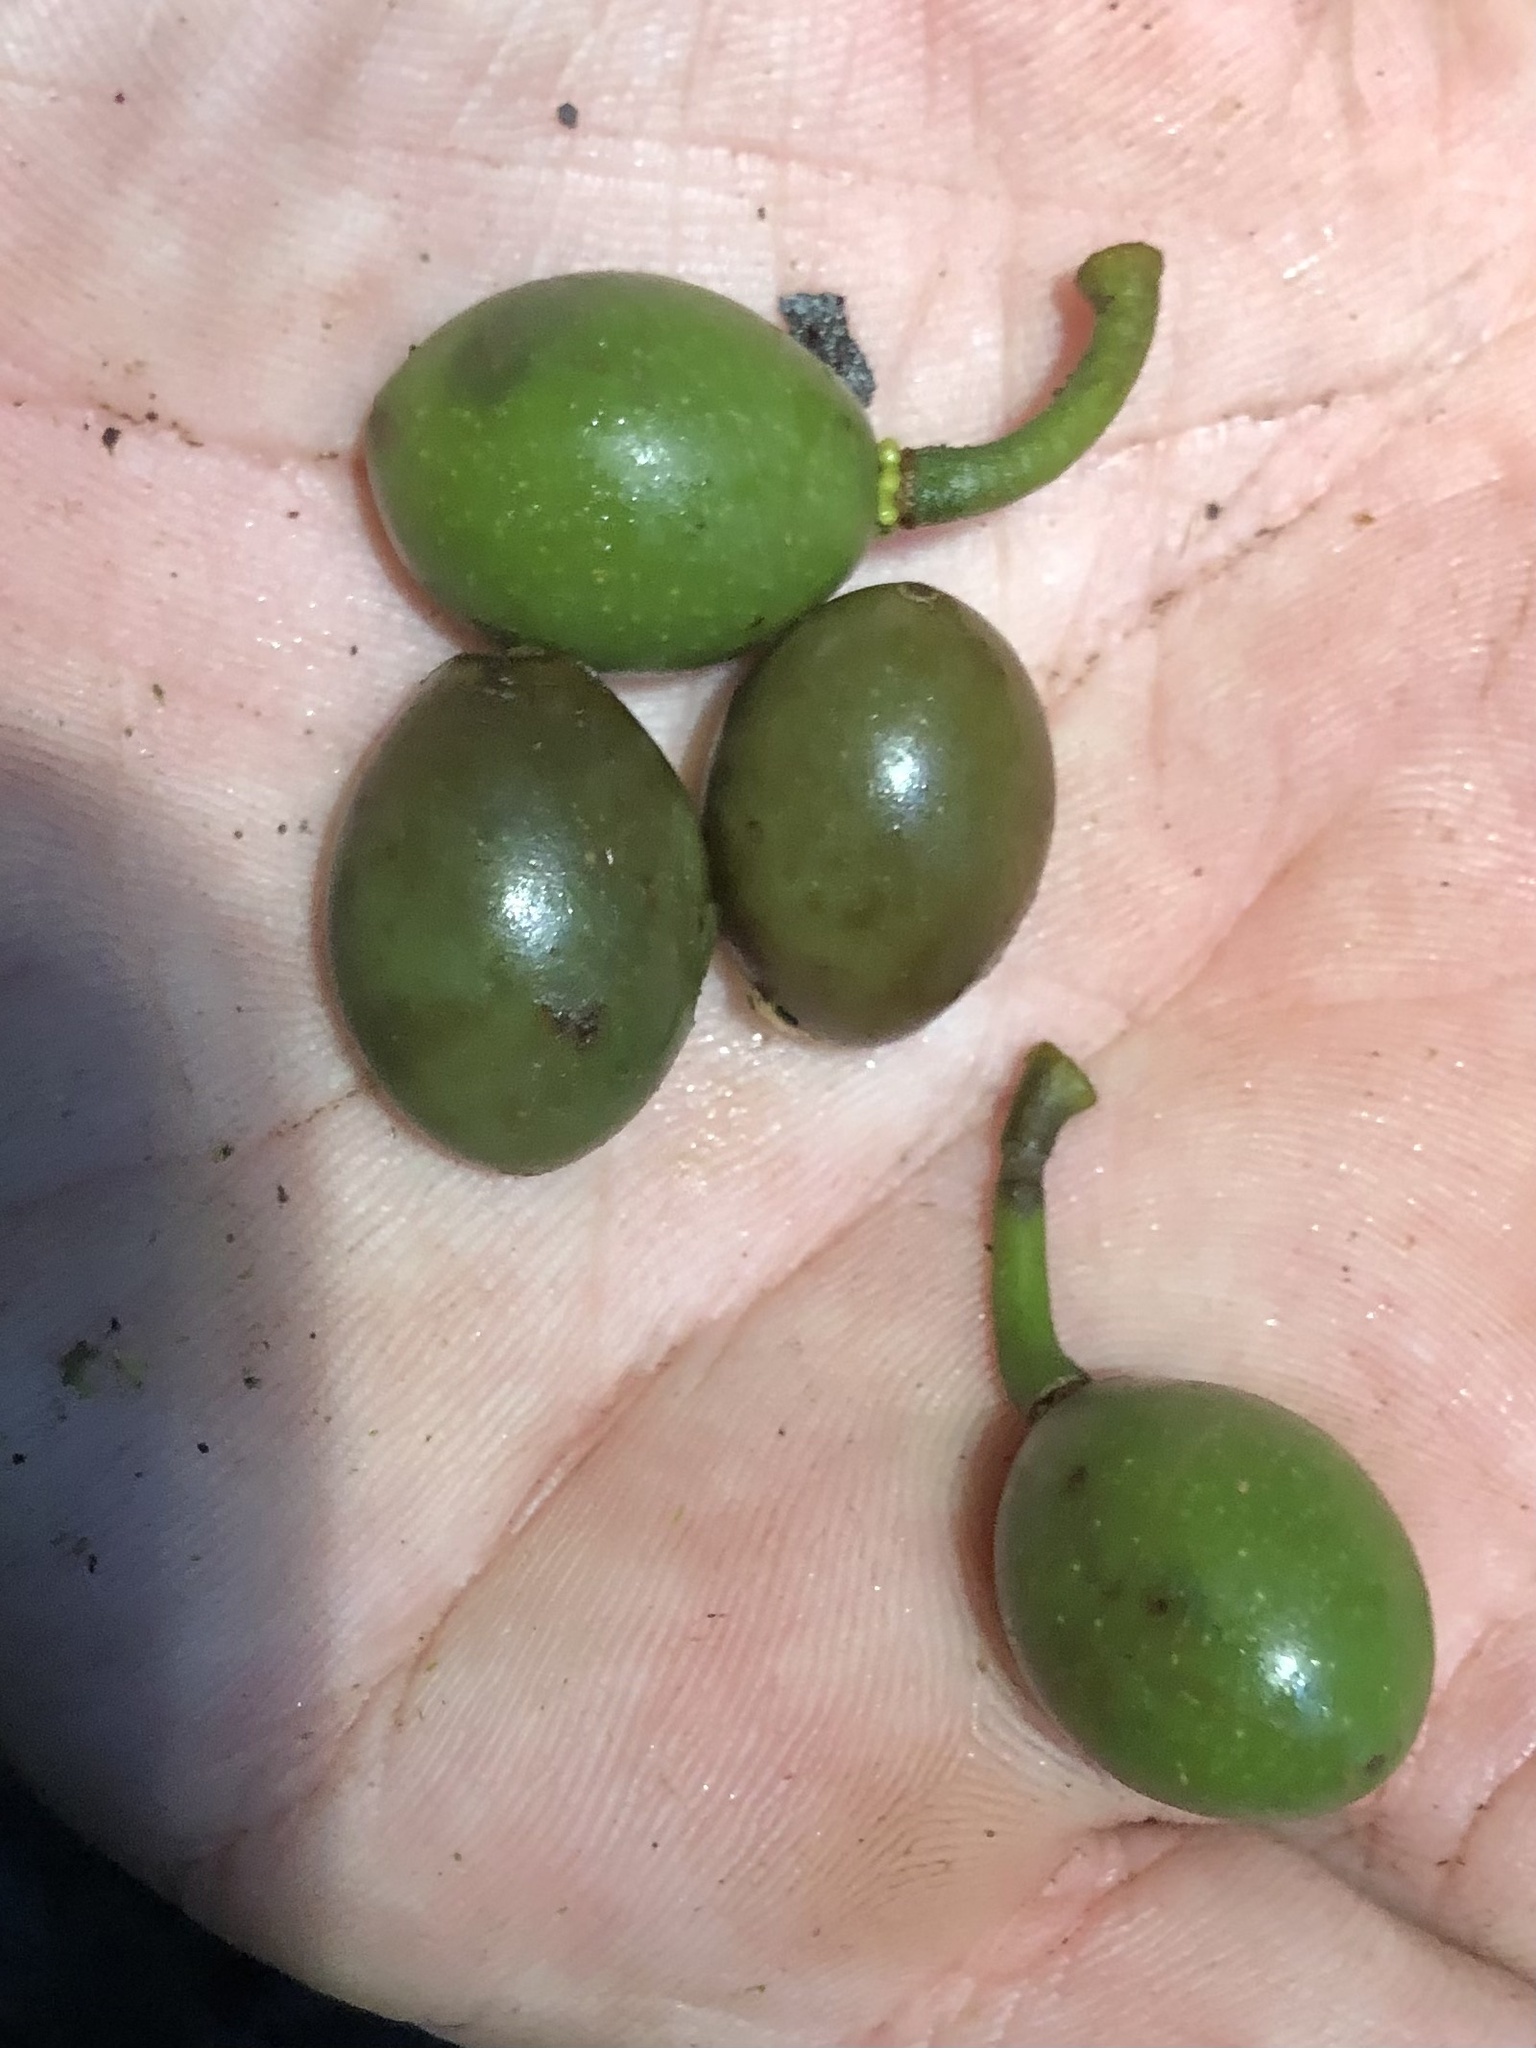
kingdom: Plantae
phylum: Tracheophyta
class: Magnoliopsida
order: Oxalidales
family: Elaeocarpaceae
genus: Elaeocarpus
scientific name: Elaeocarpus eumundi
